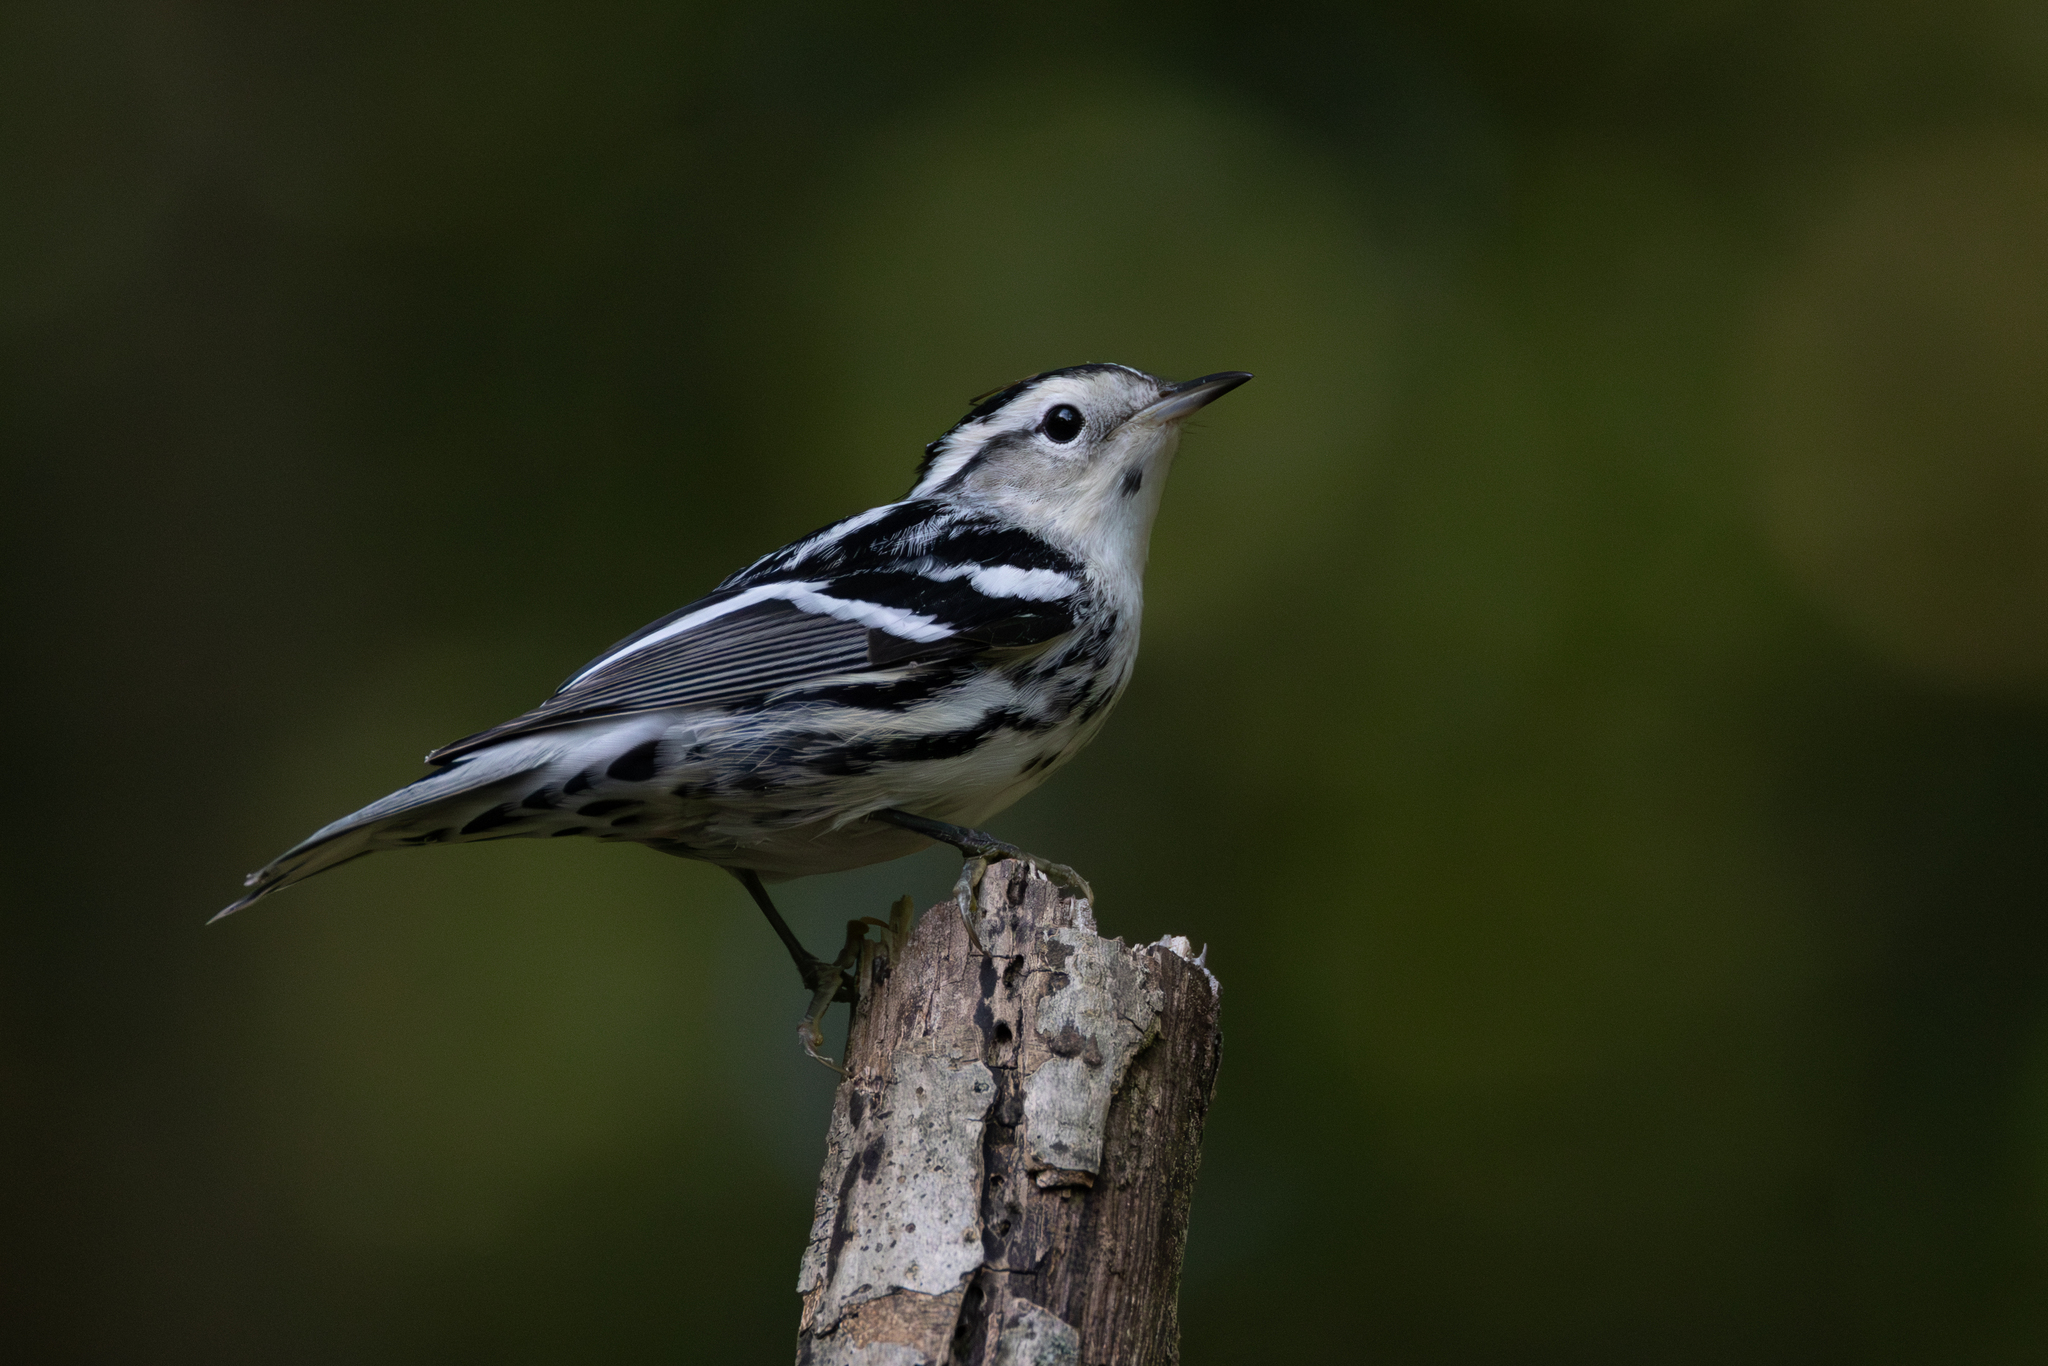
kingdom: Animalia
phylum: Chordata
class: Aves
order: Passeriformes
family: Parulidae
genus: Mniotilta
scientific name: Mniotilta varia
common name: Black-and-white warbler
